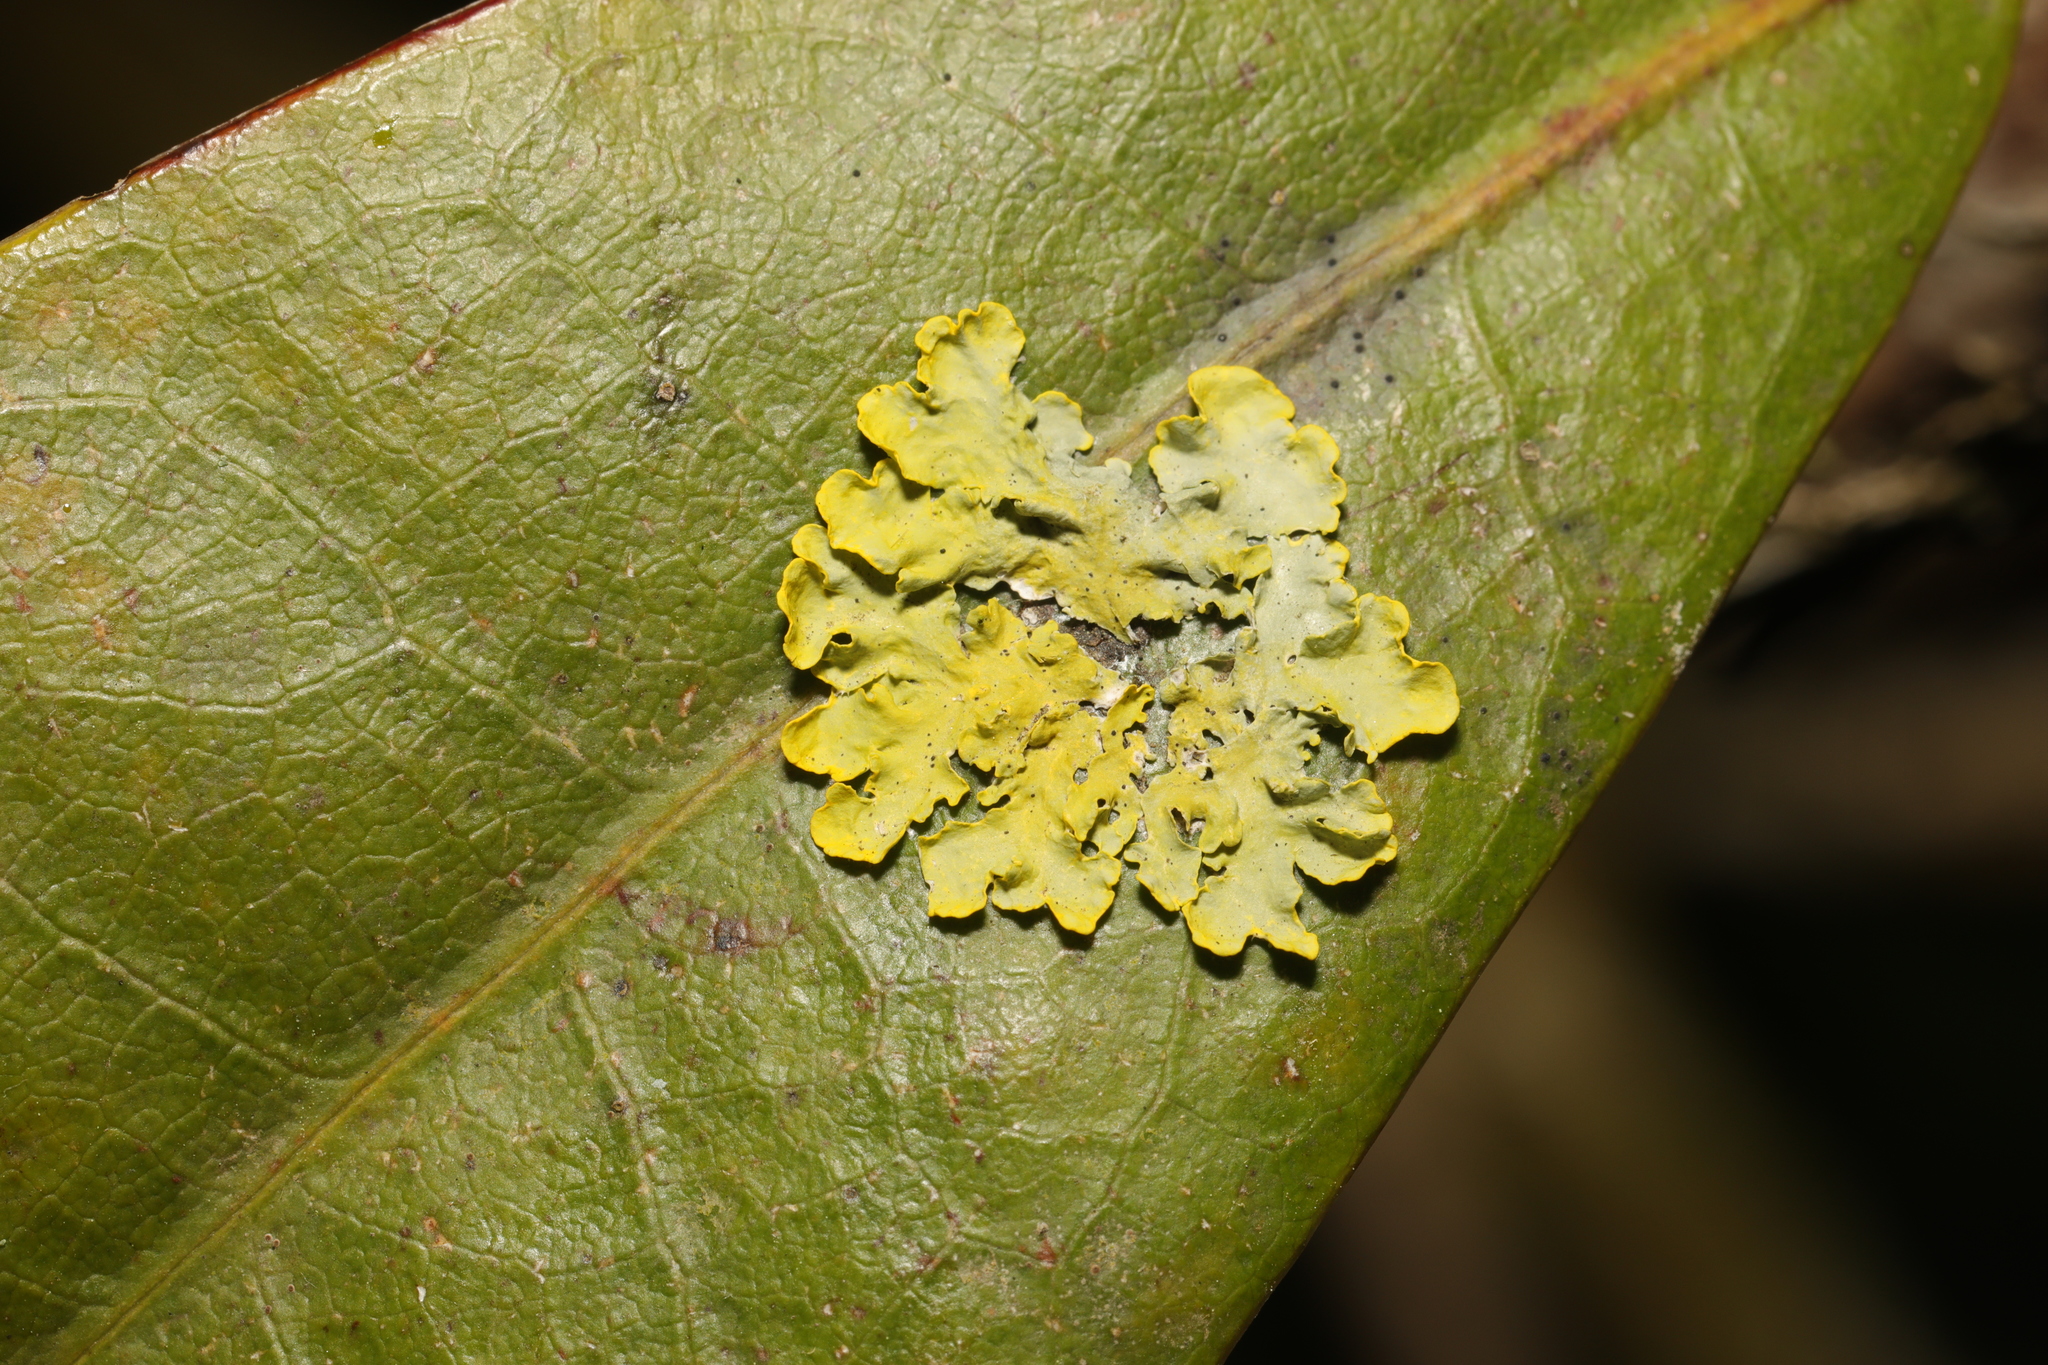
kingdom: Fungi
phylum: Ascomycota
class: Lecanoromycetes
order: Teloschistales
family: Teloschistaceae
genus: Xanthoria
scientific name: Xanthoria parietina
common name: Common orange lichen
